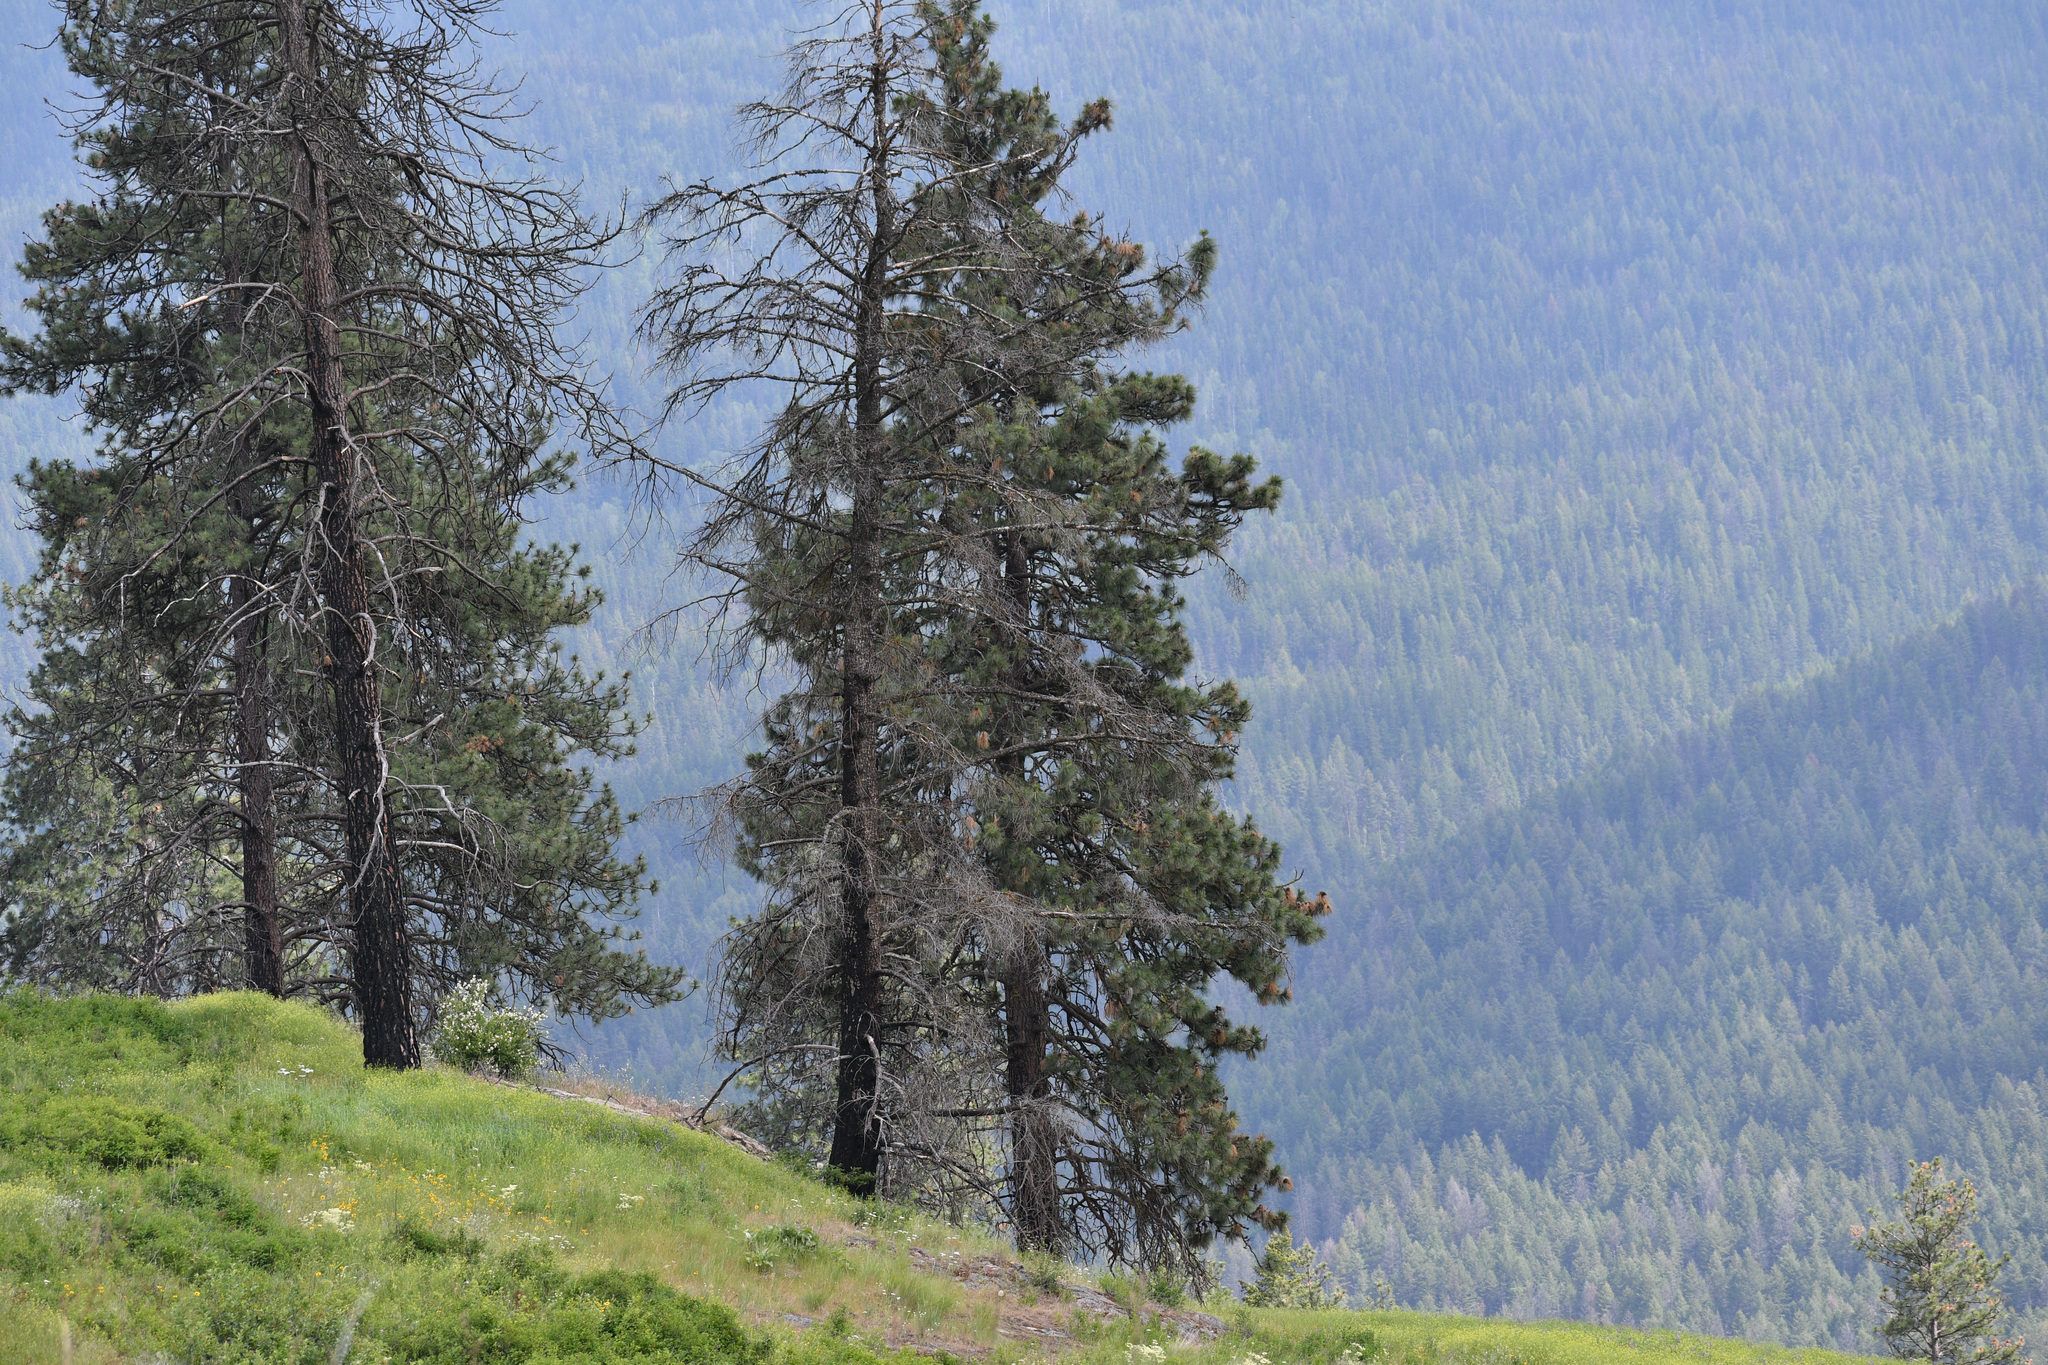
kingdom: Plantae
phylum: Tracheophyta
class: Pinopsida
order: Pinales
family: Pinaceae
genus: Pinus
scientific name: Pinus ponderosa
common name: Western yellow-pine
